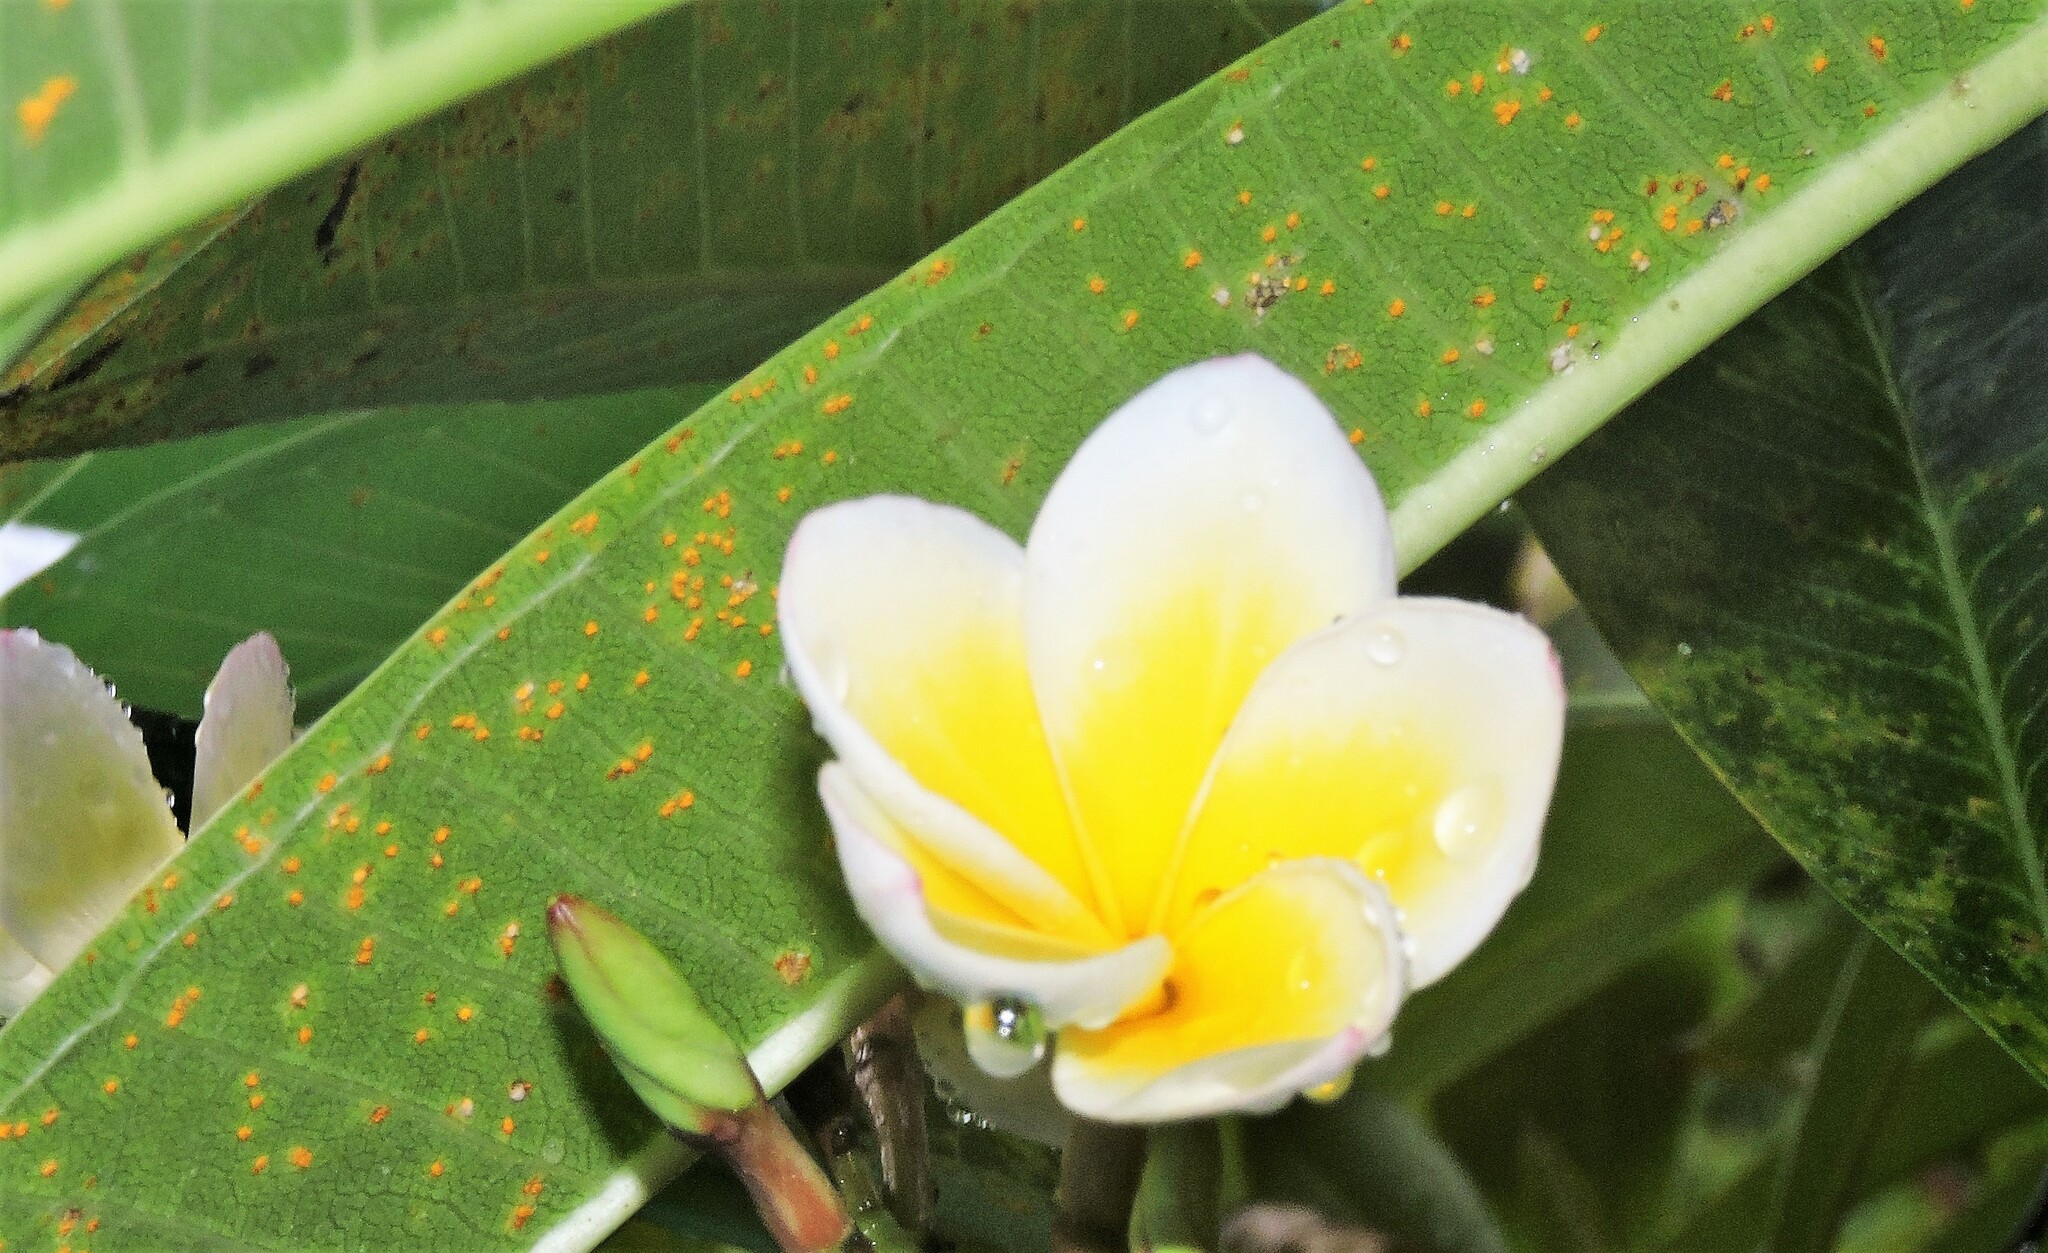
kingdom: Fungi
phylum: Basidiomycota
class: Pucciniomycetes
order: Pucciniales
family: Coleosporiaceae
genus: Coleosporium
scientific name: Coleosporium plumeriae
